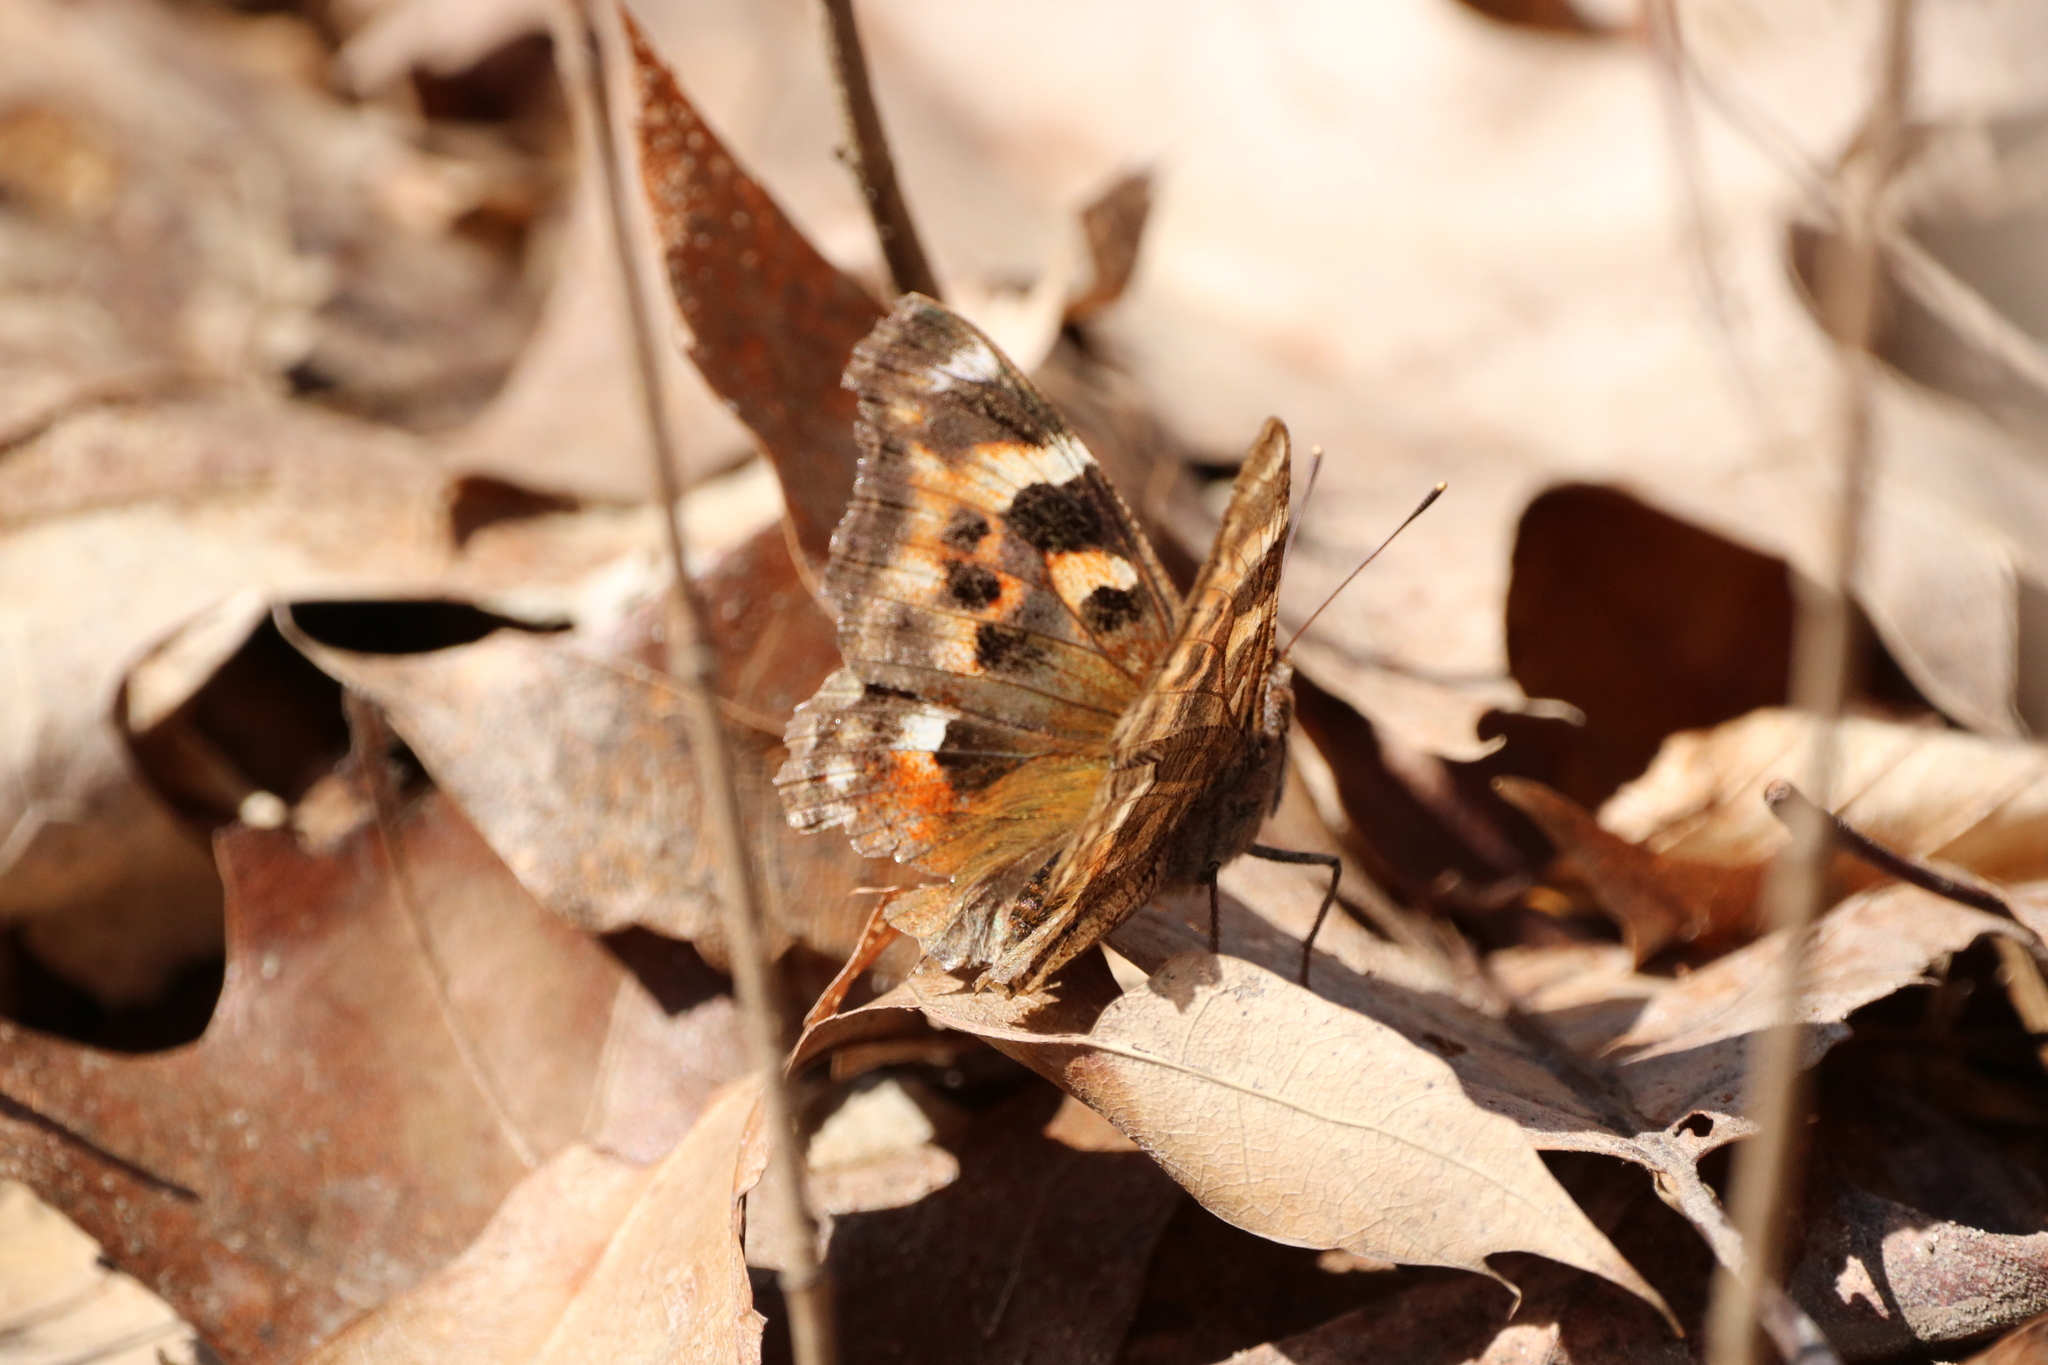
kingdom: Animalia
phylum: Arthropoda
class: Insecta
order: Lepidoptera
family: Nymphalidae
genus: Polygonia
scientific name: Polygonia vaualbum
